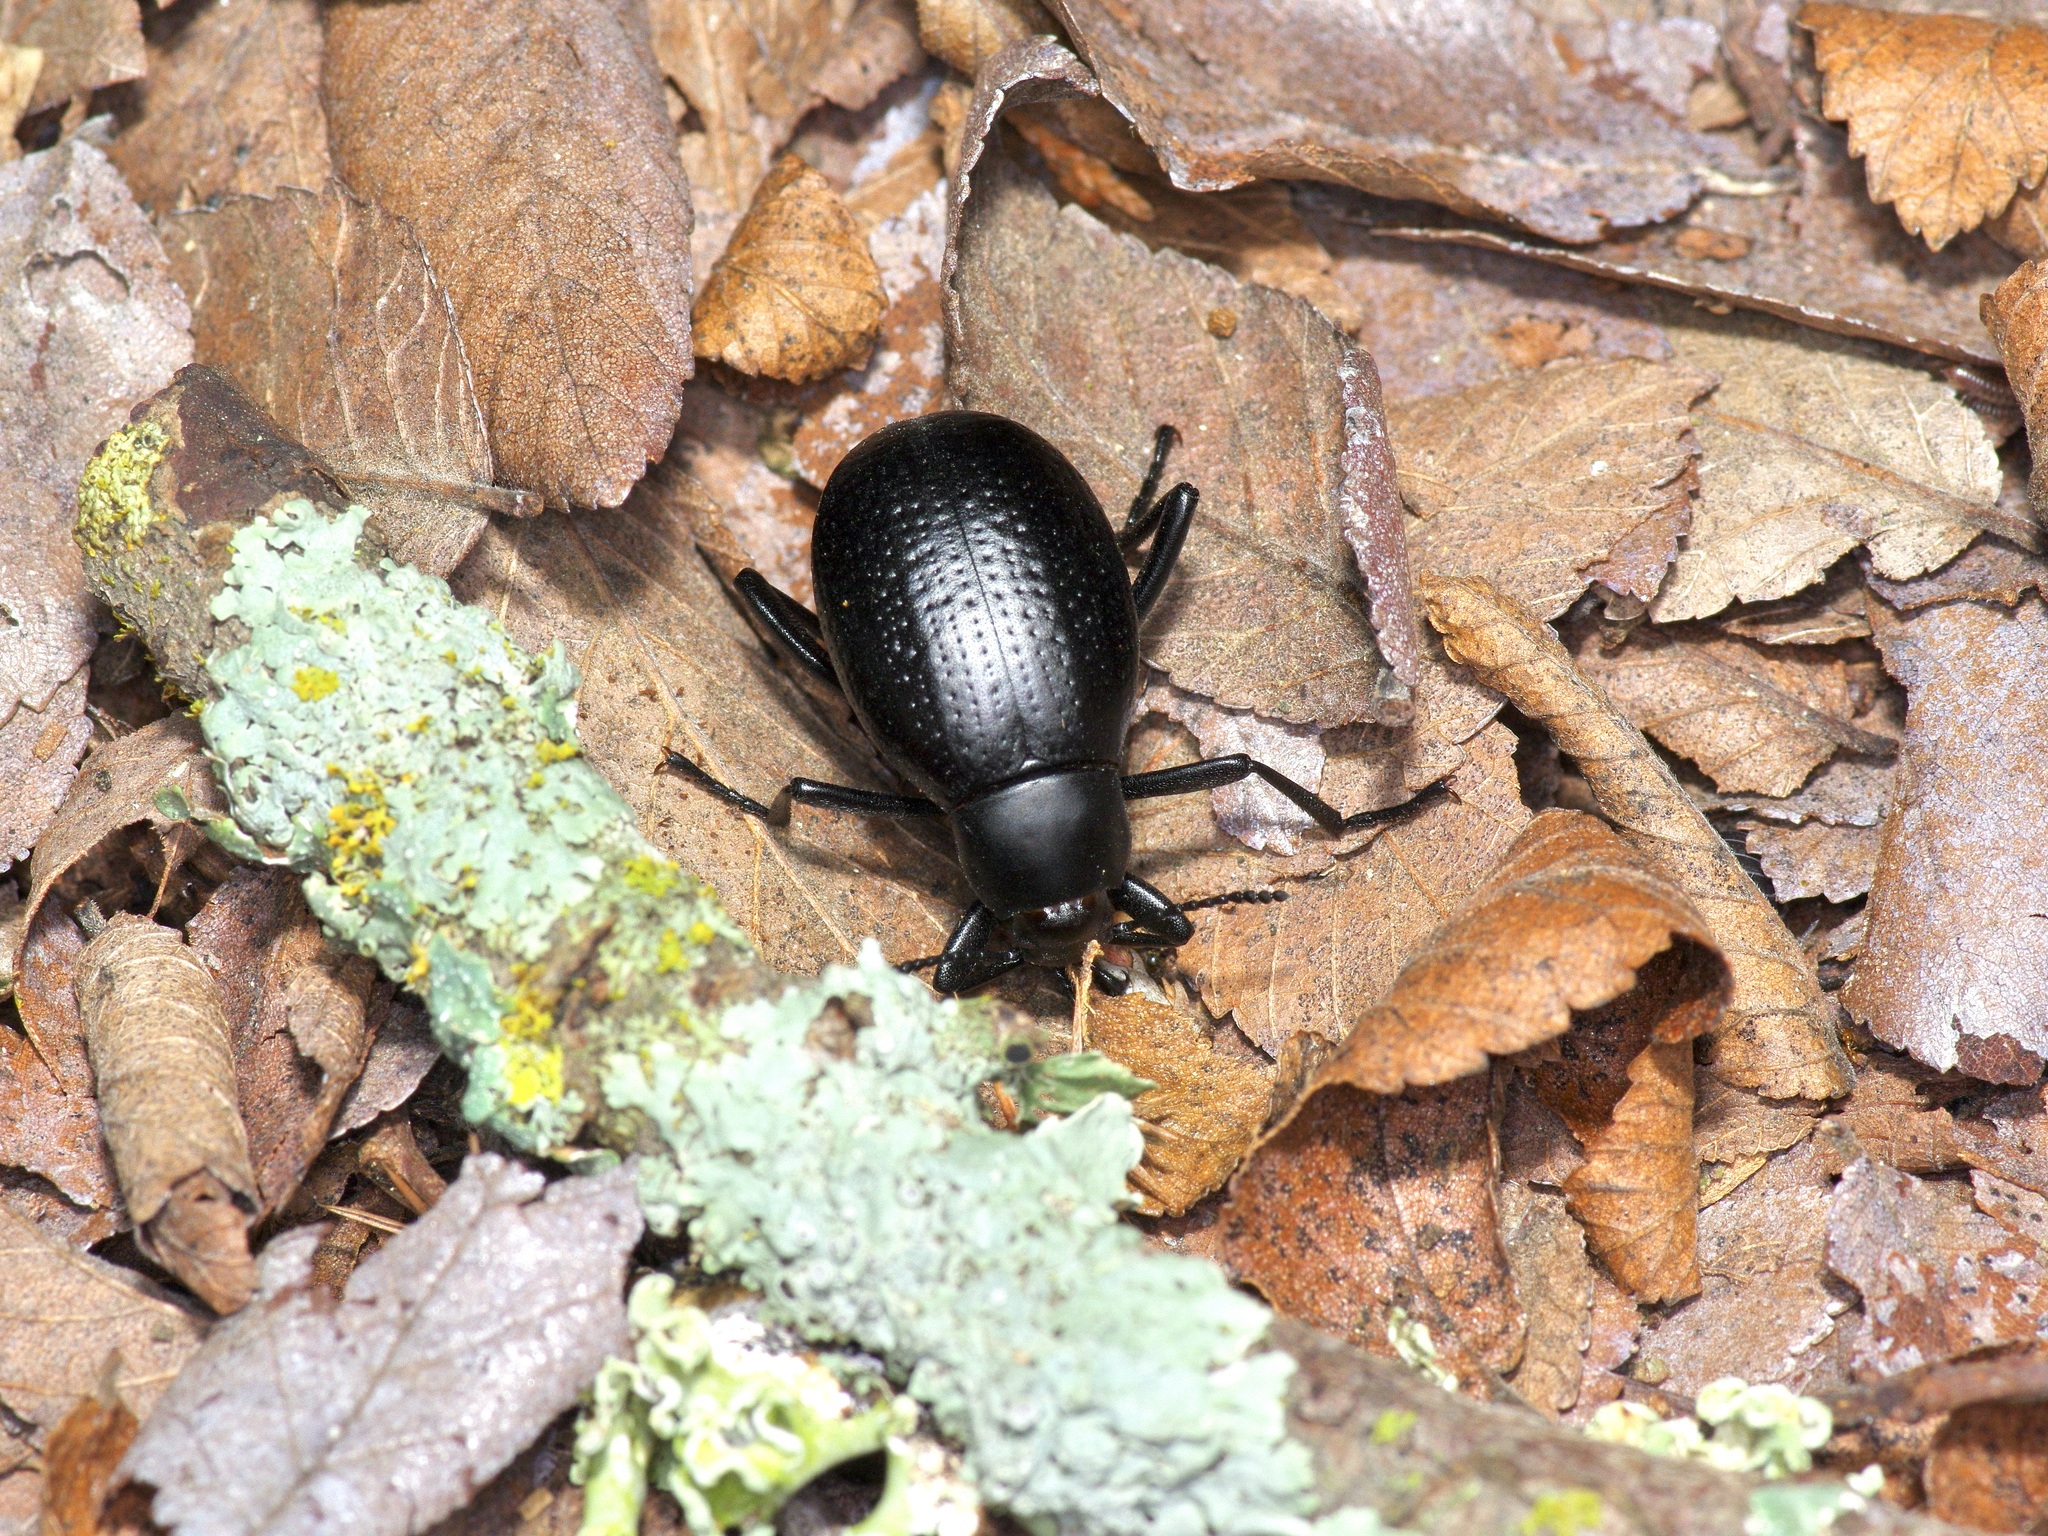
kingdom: Animalia
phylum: Arthropoda
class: Insecta
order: Coleoptera
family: Tenebrionidae
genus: Eleodes
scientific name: Eleodes goryi
